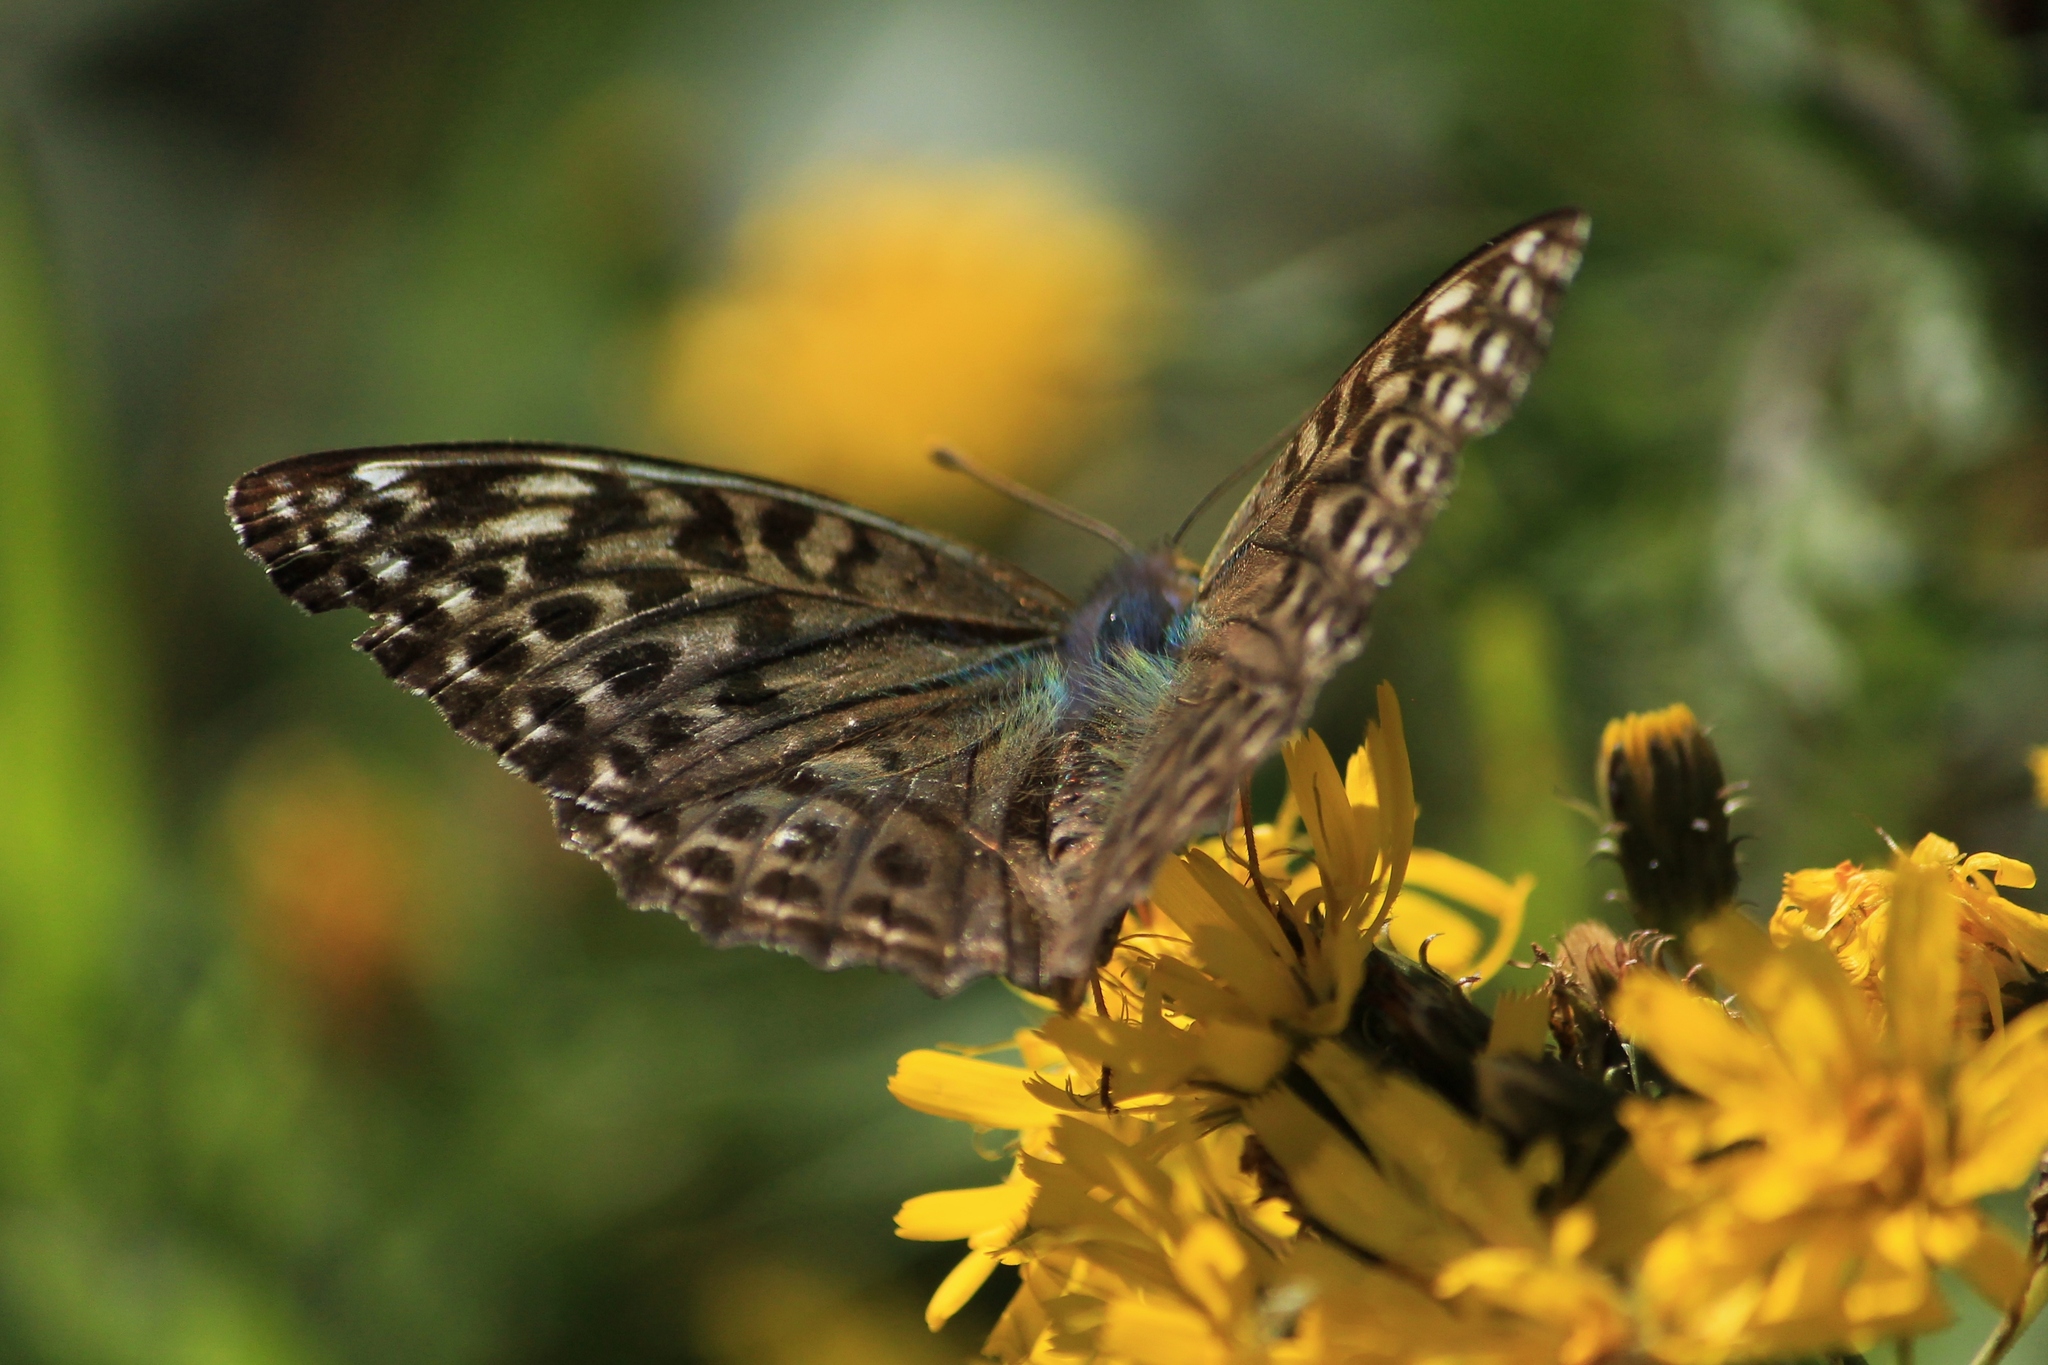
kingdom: Animalia
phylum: Arthropoda
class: Insecta
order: Lepidoptera
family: Nymphalidae
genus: Argynnis
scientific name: Argynnis paphia
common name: Silver-washed fritillary
